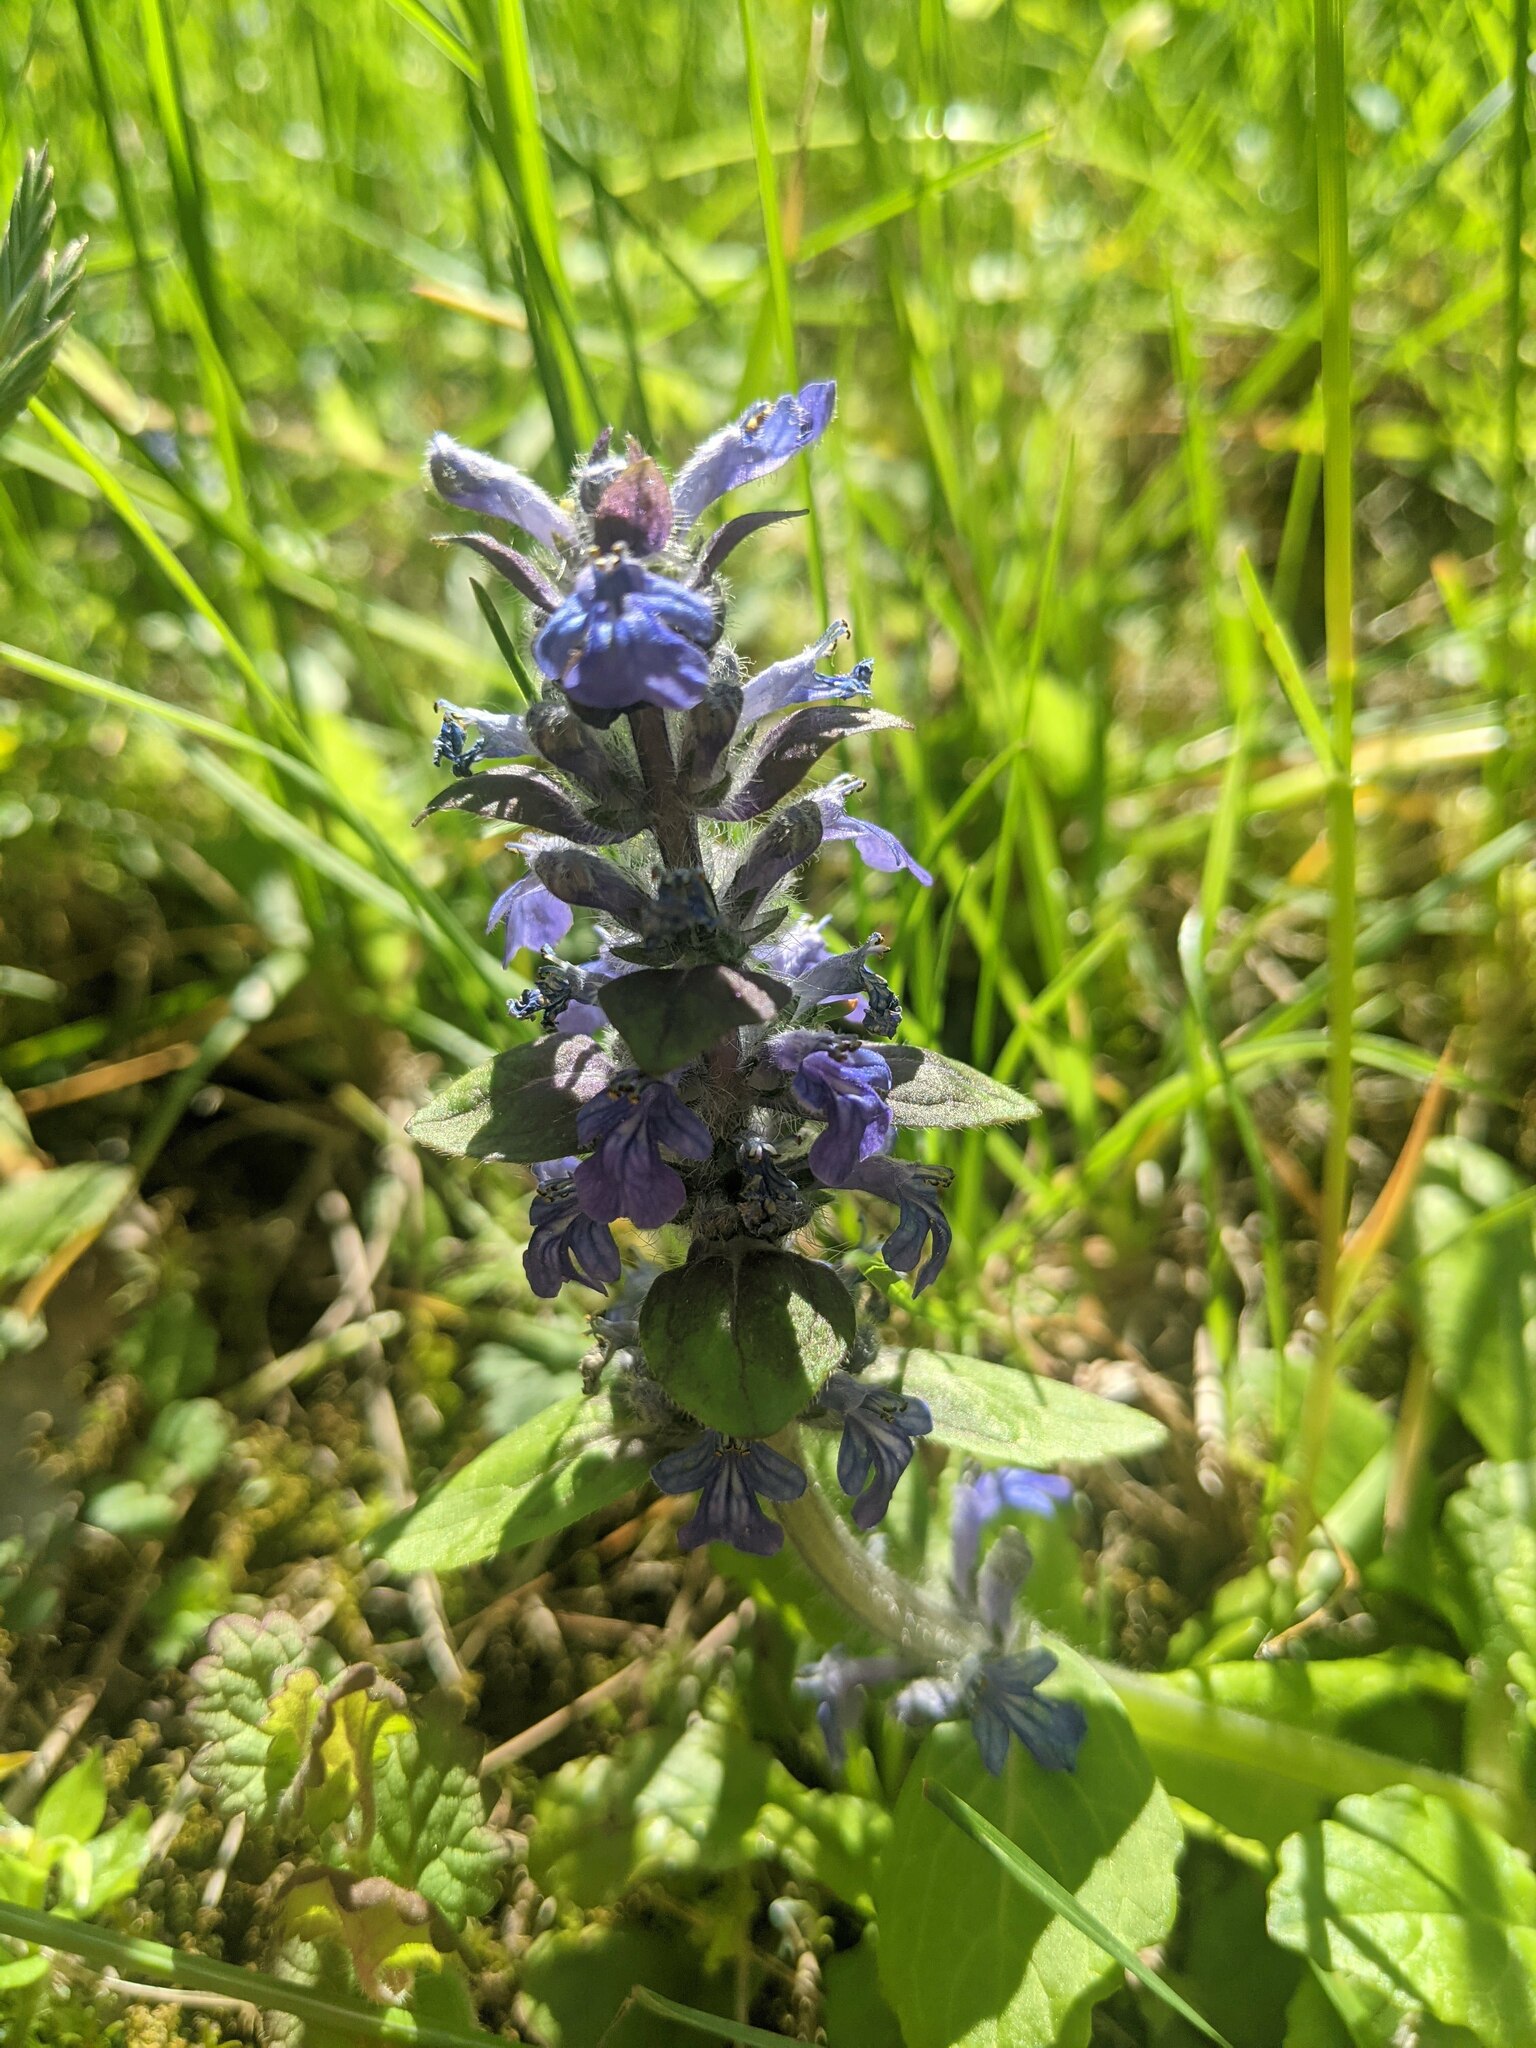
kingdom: Plantae
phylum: Tracheophyta
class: Magnoliopsida
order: Lamiales
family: Lamiaceae
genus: Ajuga
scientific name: Ajuga reptans
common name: Bugle
